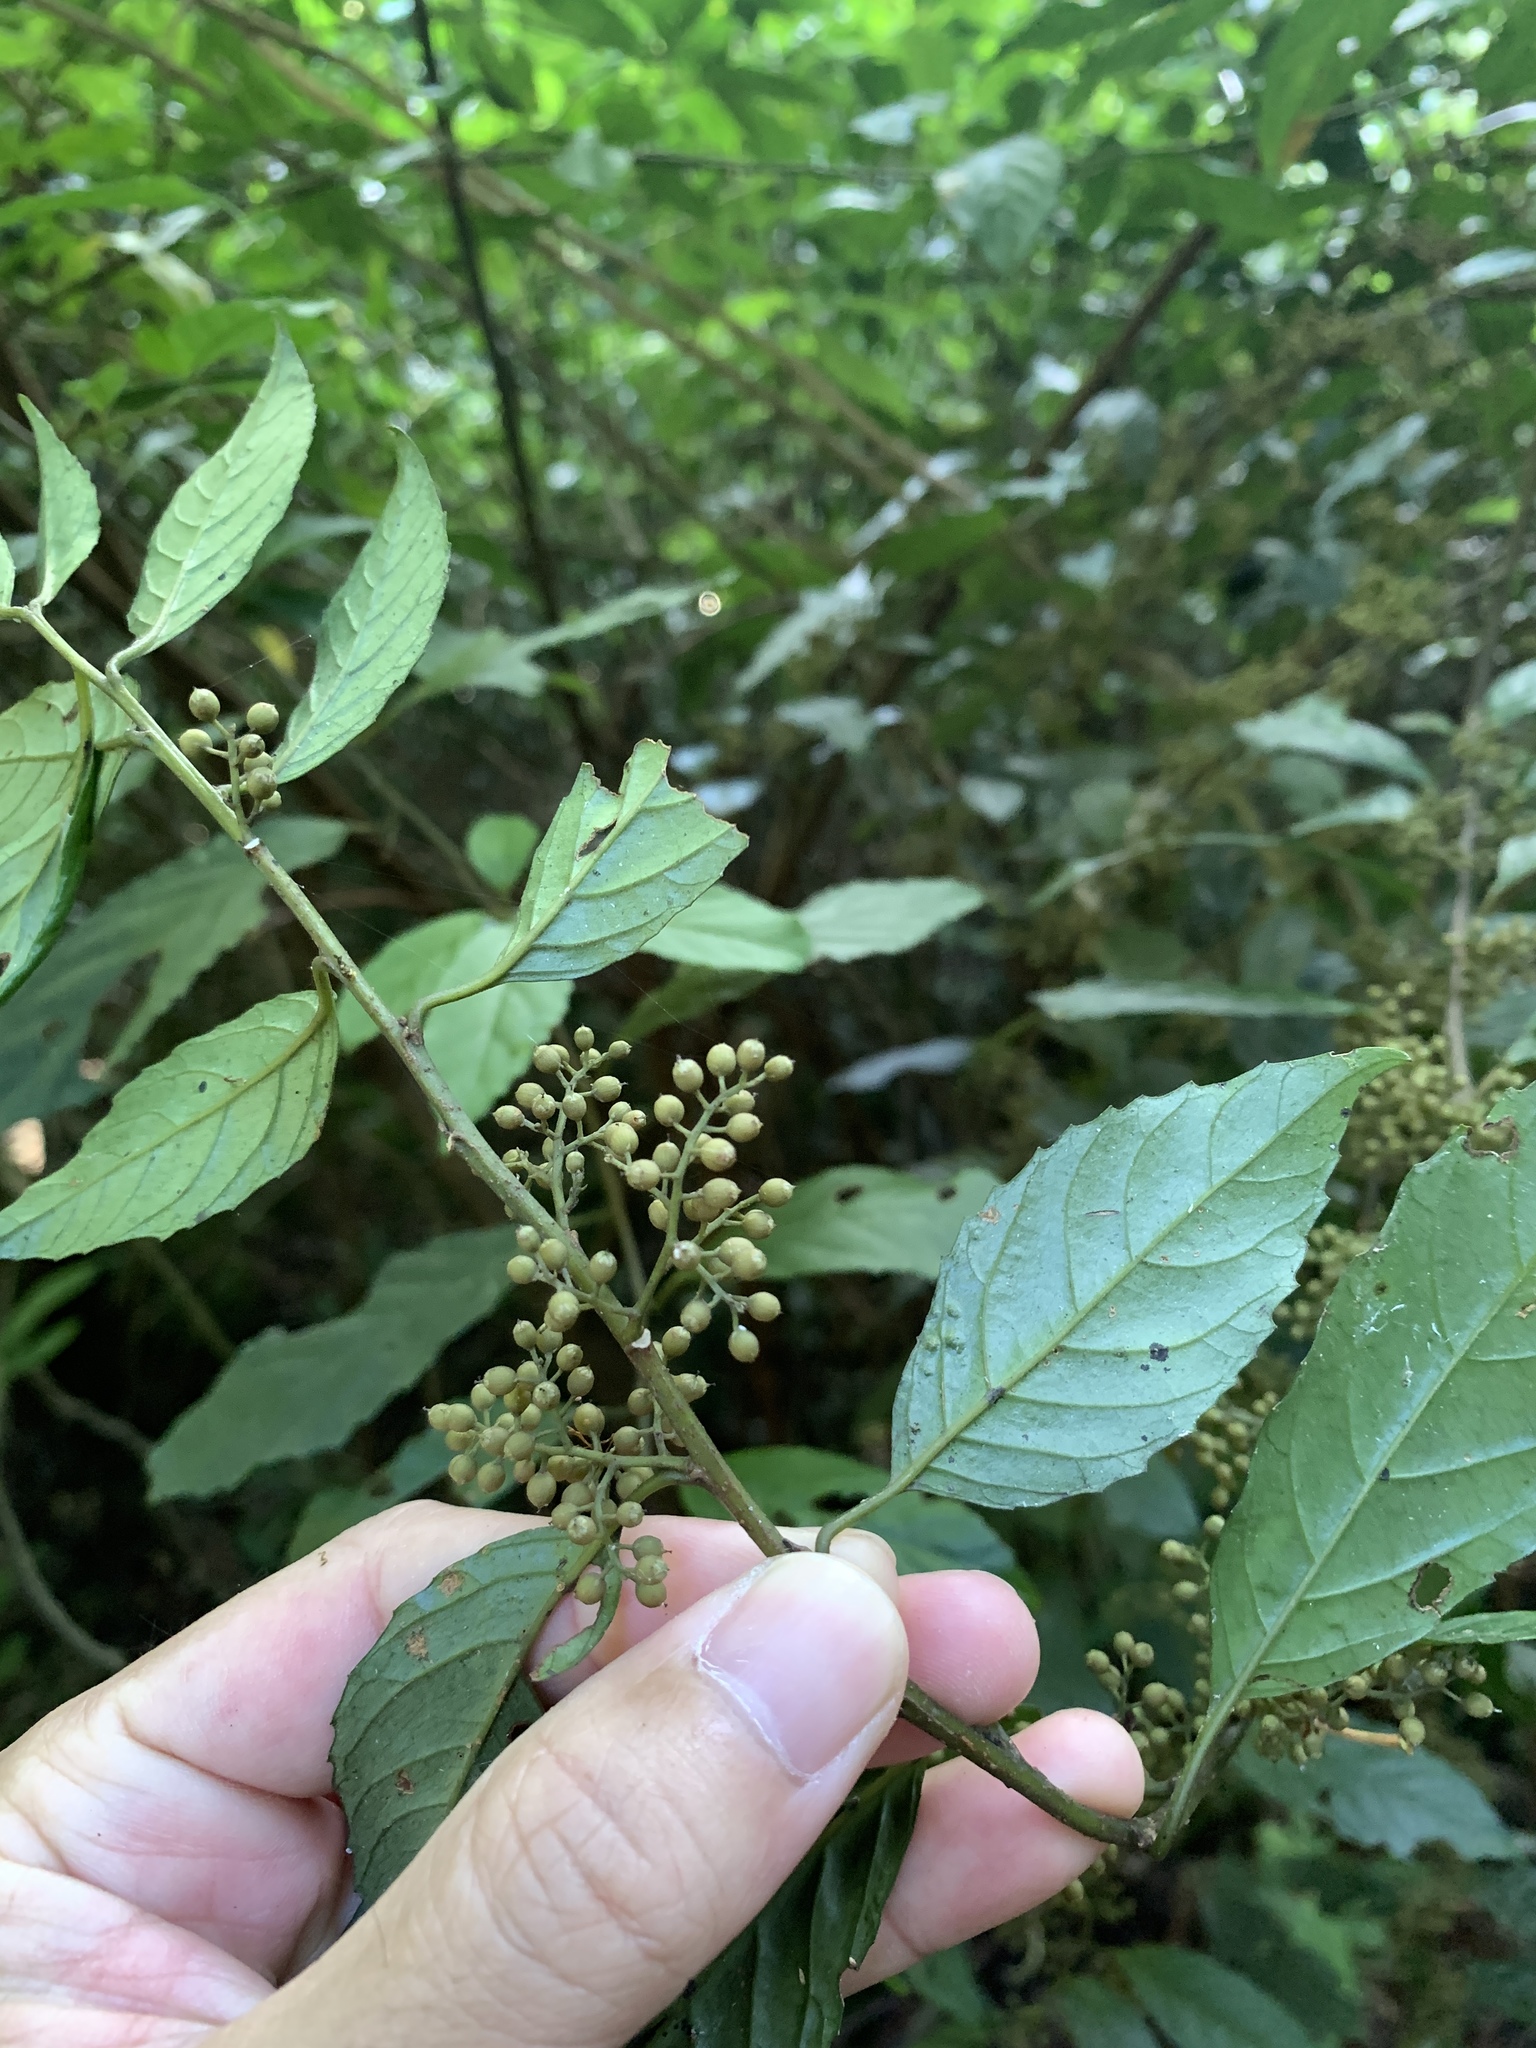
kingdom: Plantae
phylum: Tracheophyta
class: Magnoliopsida
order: Ericales
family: Primulaceae
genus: Maesa
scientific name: Maesa perlaria
